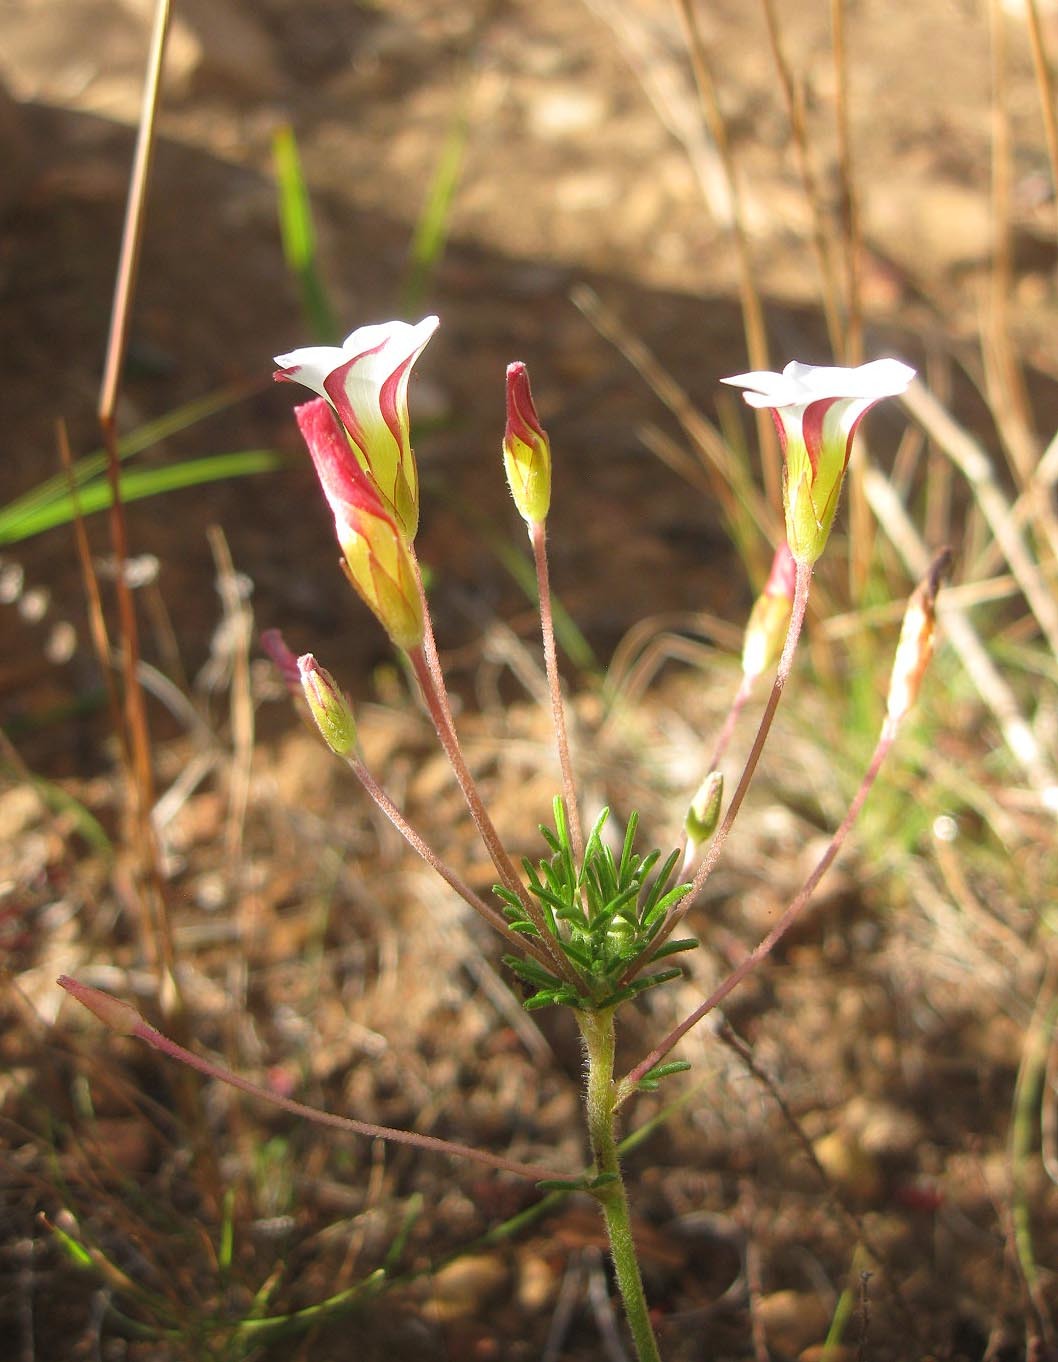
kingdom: Plantae
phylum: Tracheophyta
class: Magnoliopsida
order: Oxalidales
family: Oxalidaceae
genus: Oxalis
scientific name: Oxalis tenuifolia
